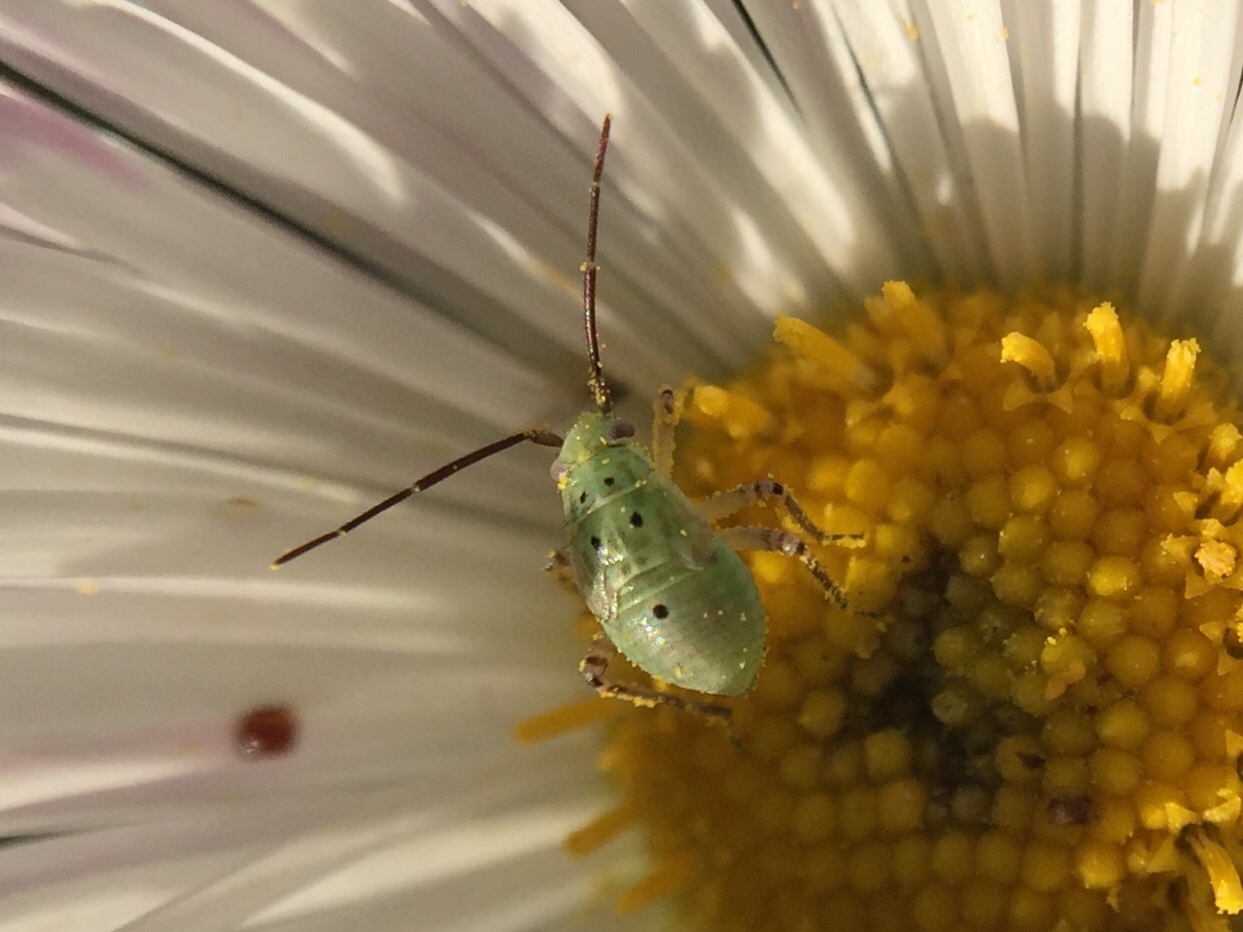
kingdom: Animalia
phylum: Arthropoda
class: Insecta
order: Hemiptera
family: Miridae
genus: Lygus
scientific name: Lygus
